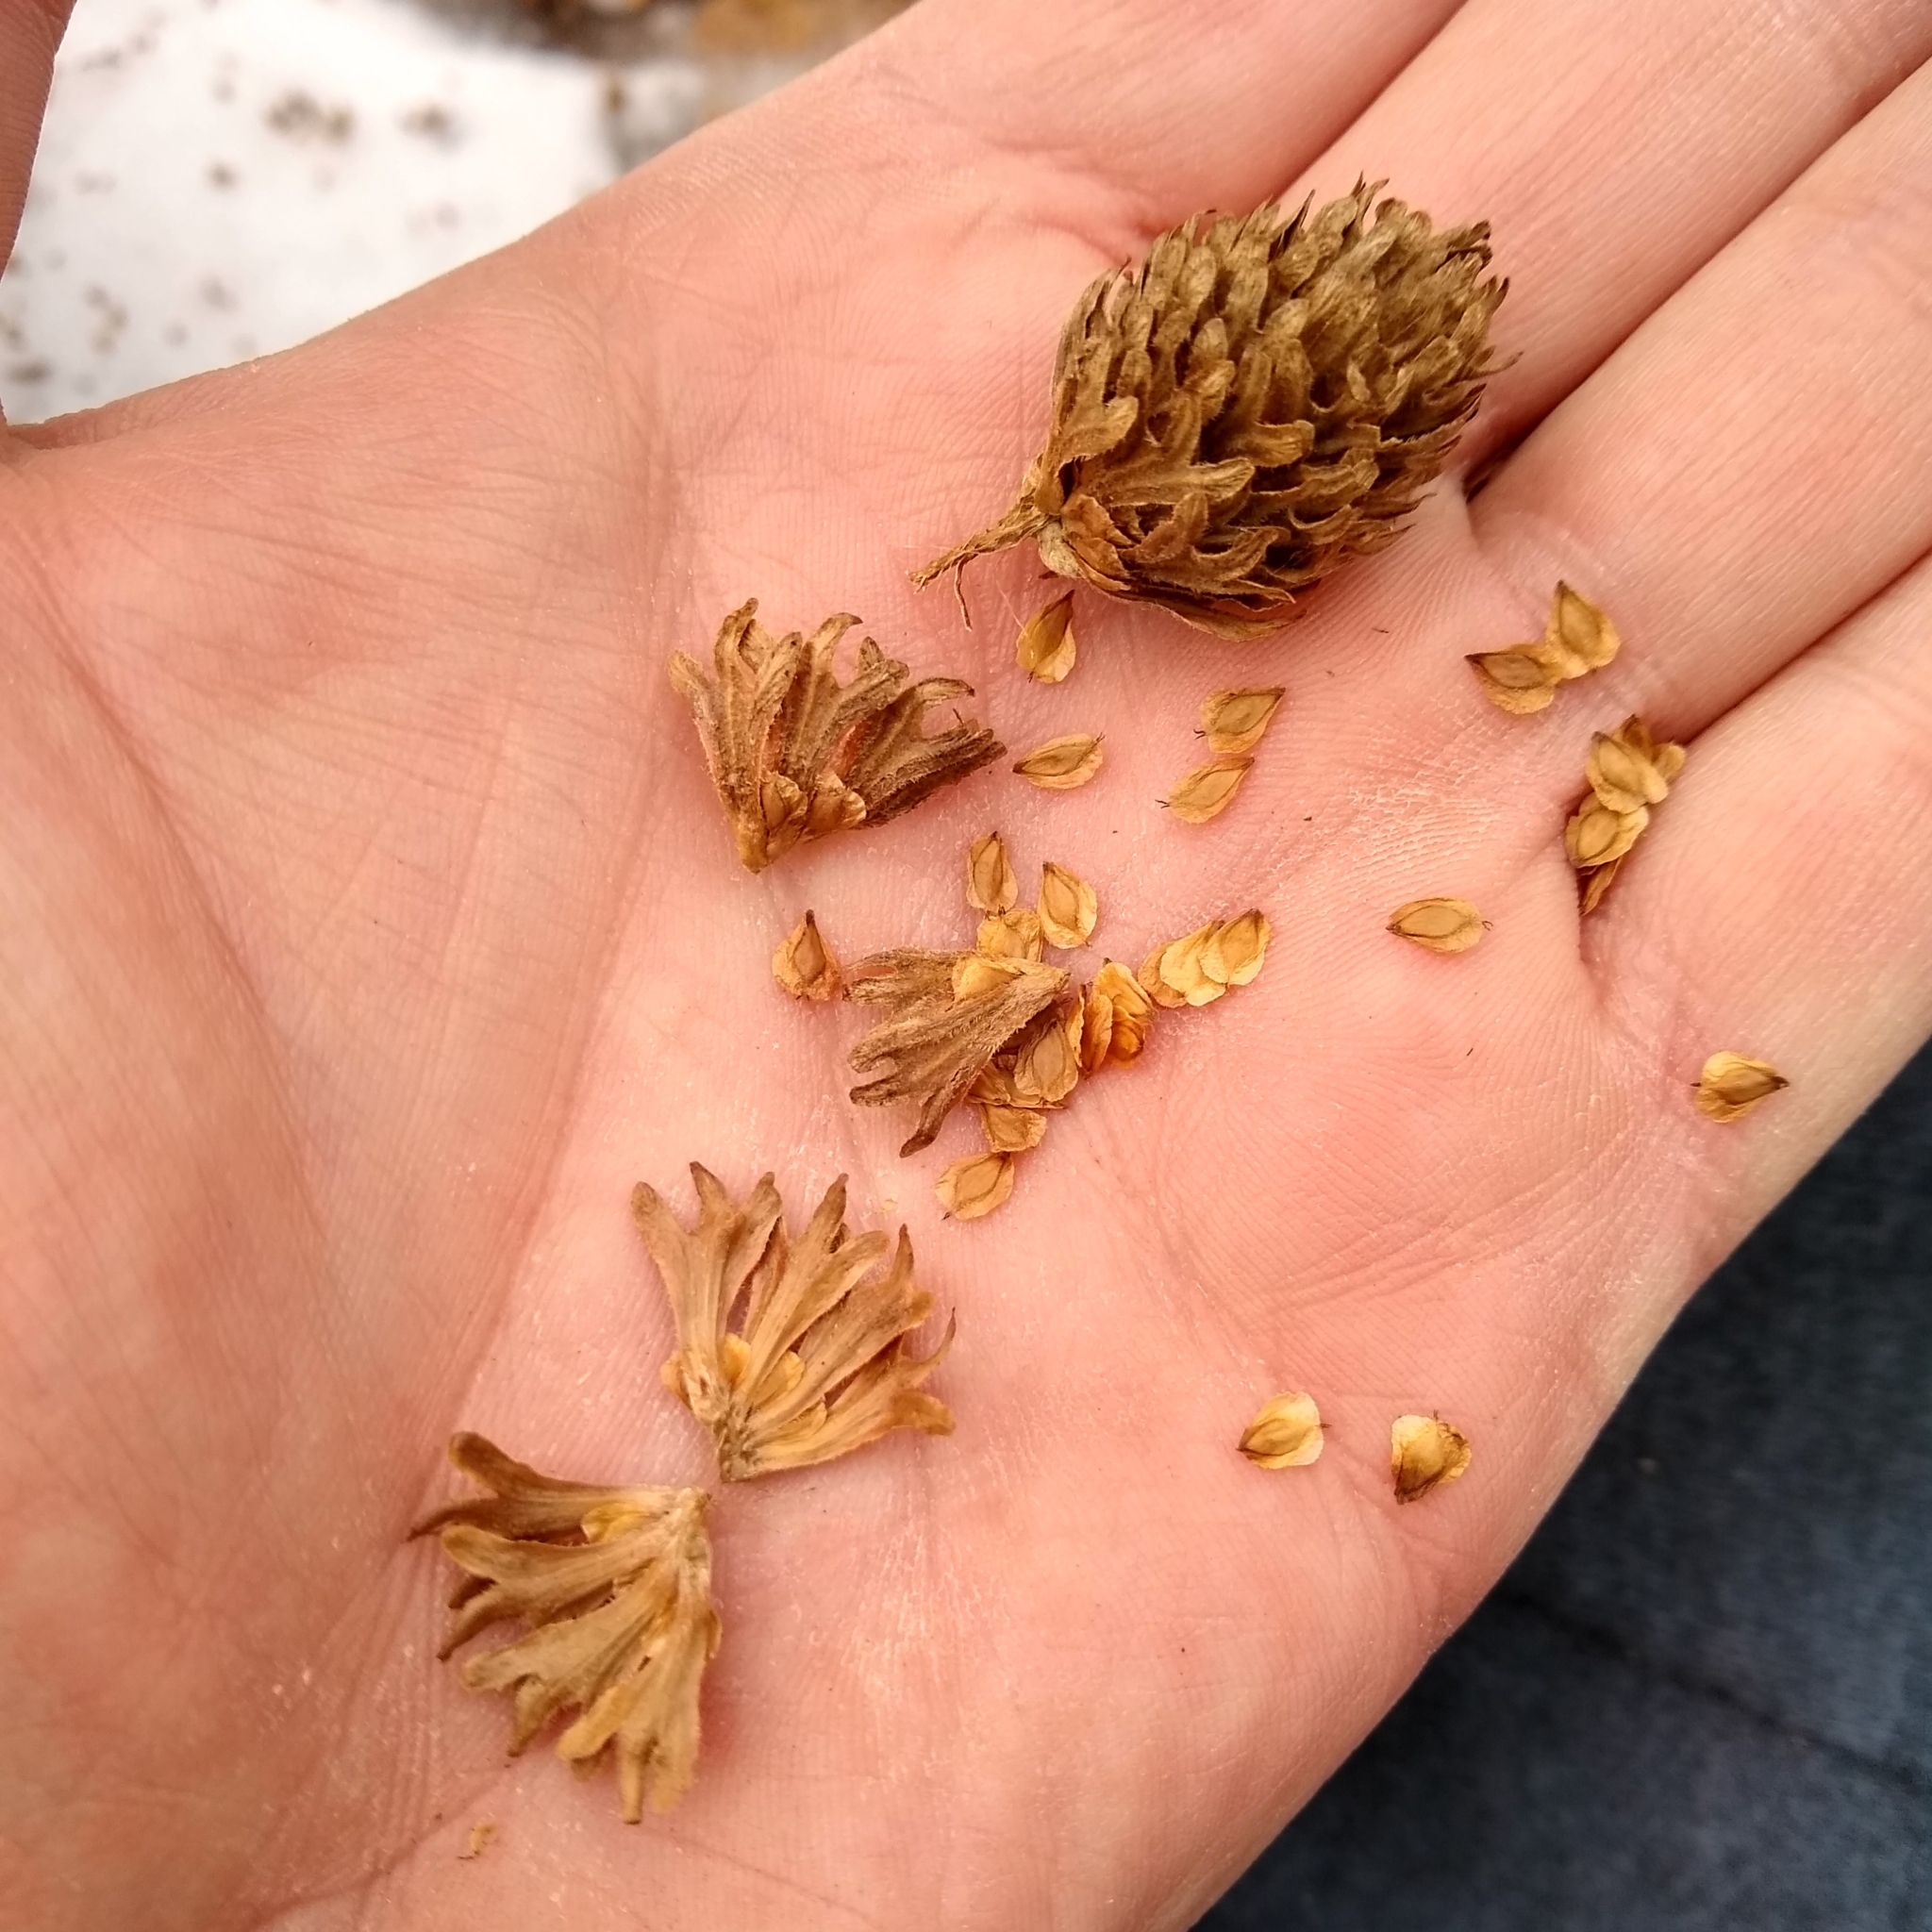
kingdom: Plantae
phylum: Tracheophyta
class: Magnoliopsida
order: Fagales
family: Betulaceae
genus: Betula
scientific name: Betula alleghaniensis
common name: Yellow birch
